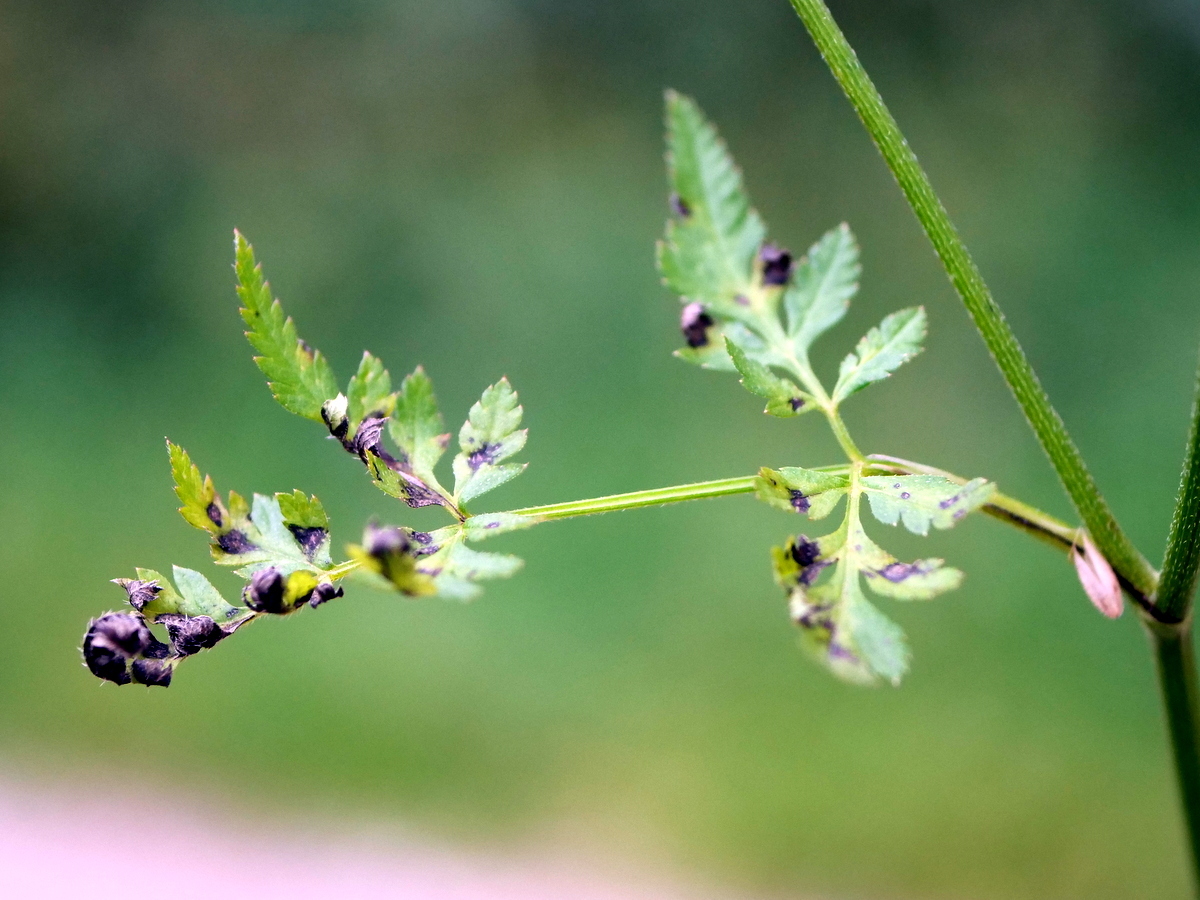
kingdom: Plantae
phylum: Tracheophyta
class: Magnoliopsida
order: Apiales
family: Apiaceae
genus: Torilis
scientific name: Torilis japonica
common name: Upright hedge-parsley
